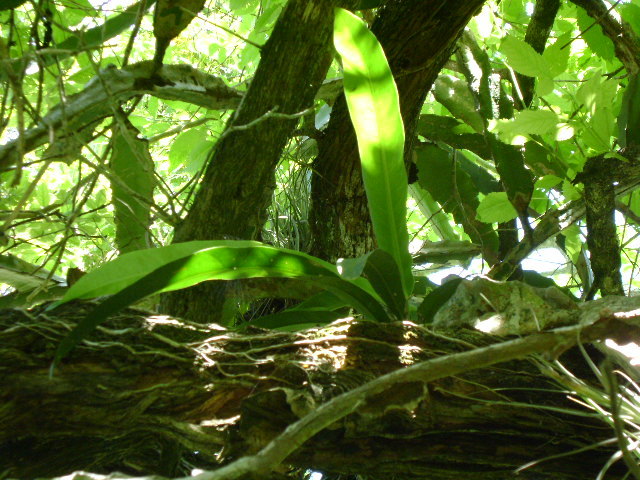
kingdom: Plantae
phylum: Tracheophyta
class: Liliopsida
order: Alismatales
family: Araceae
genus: Anthurium
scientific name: Anthurium schlechtendalii
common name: Laceleaf
